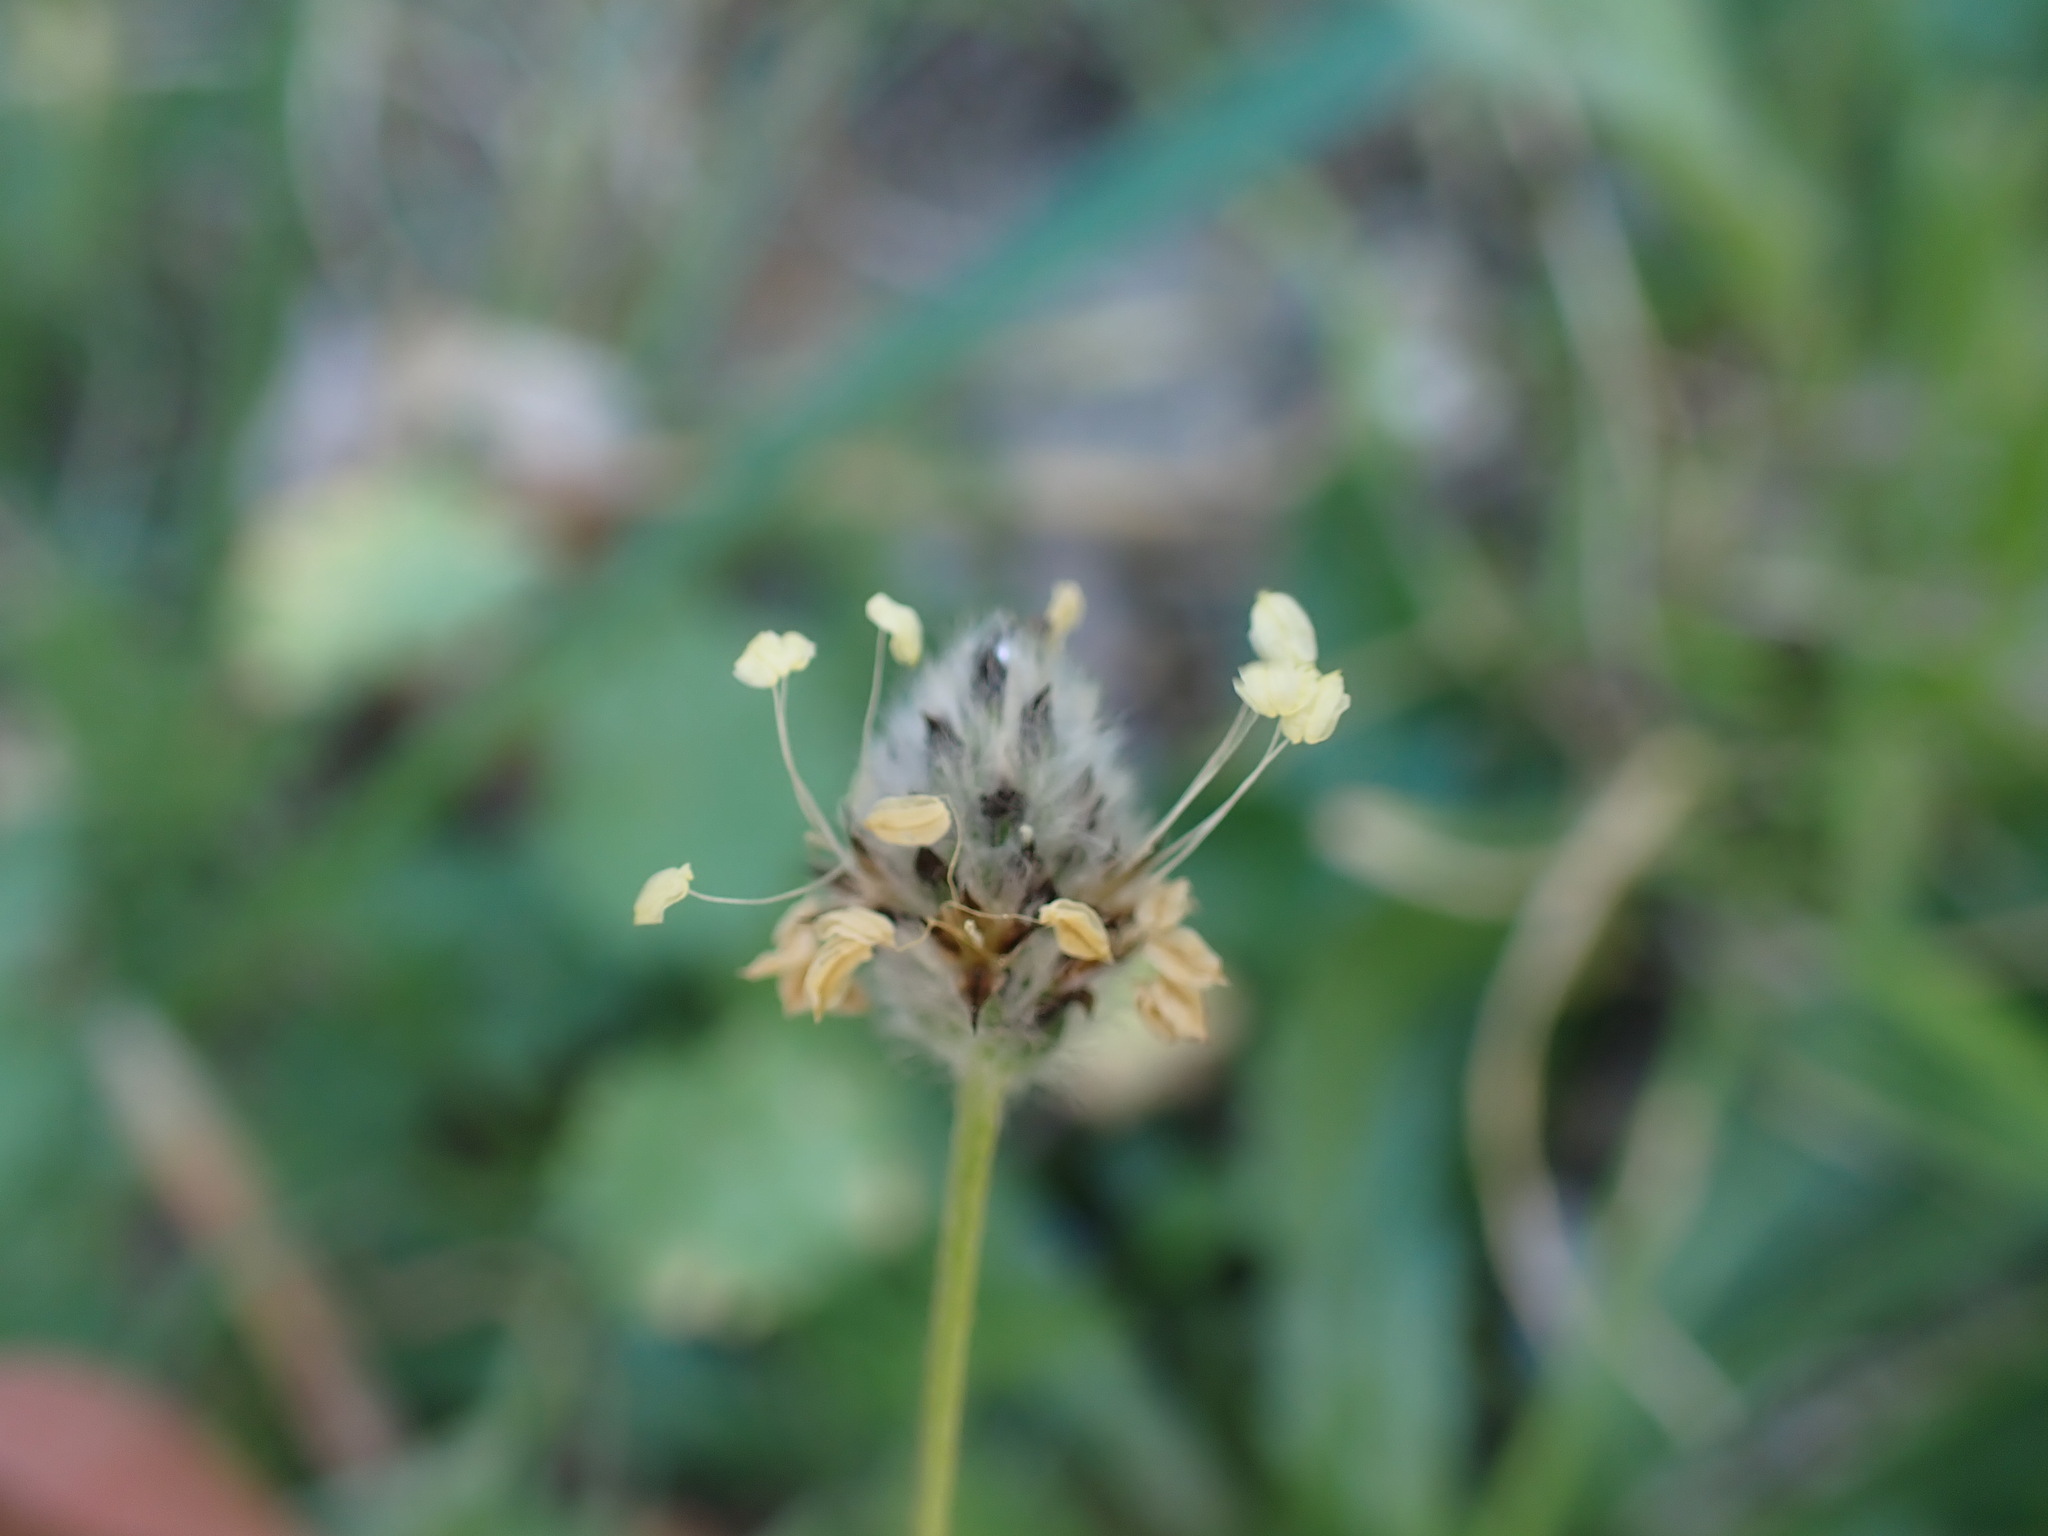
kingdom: Plantae
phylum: Tracheophyta
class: Magnoliopsida
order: Lamiales
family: Plantaginaceae
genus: Plantago
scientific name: Plantago lagopus
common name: Hare-foot plantain
